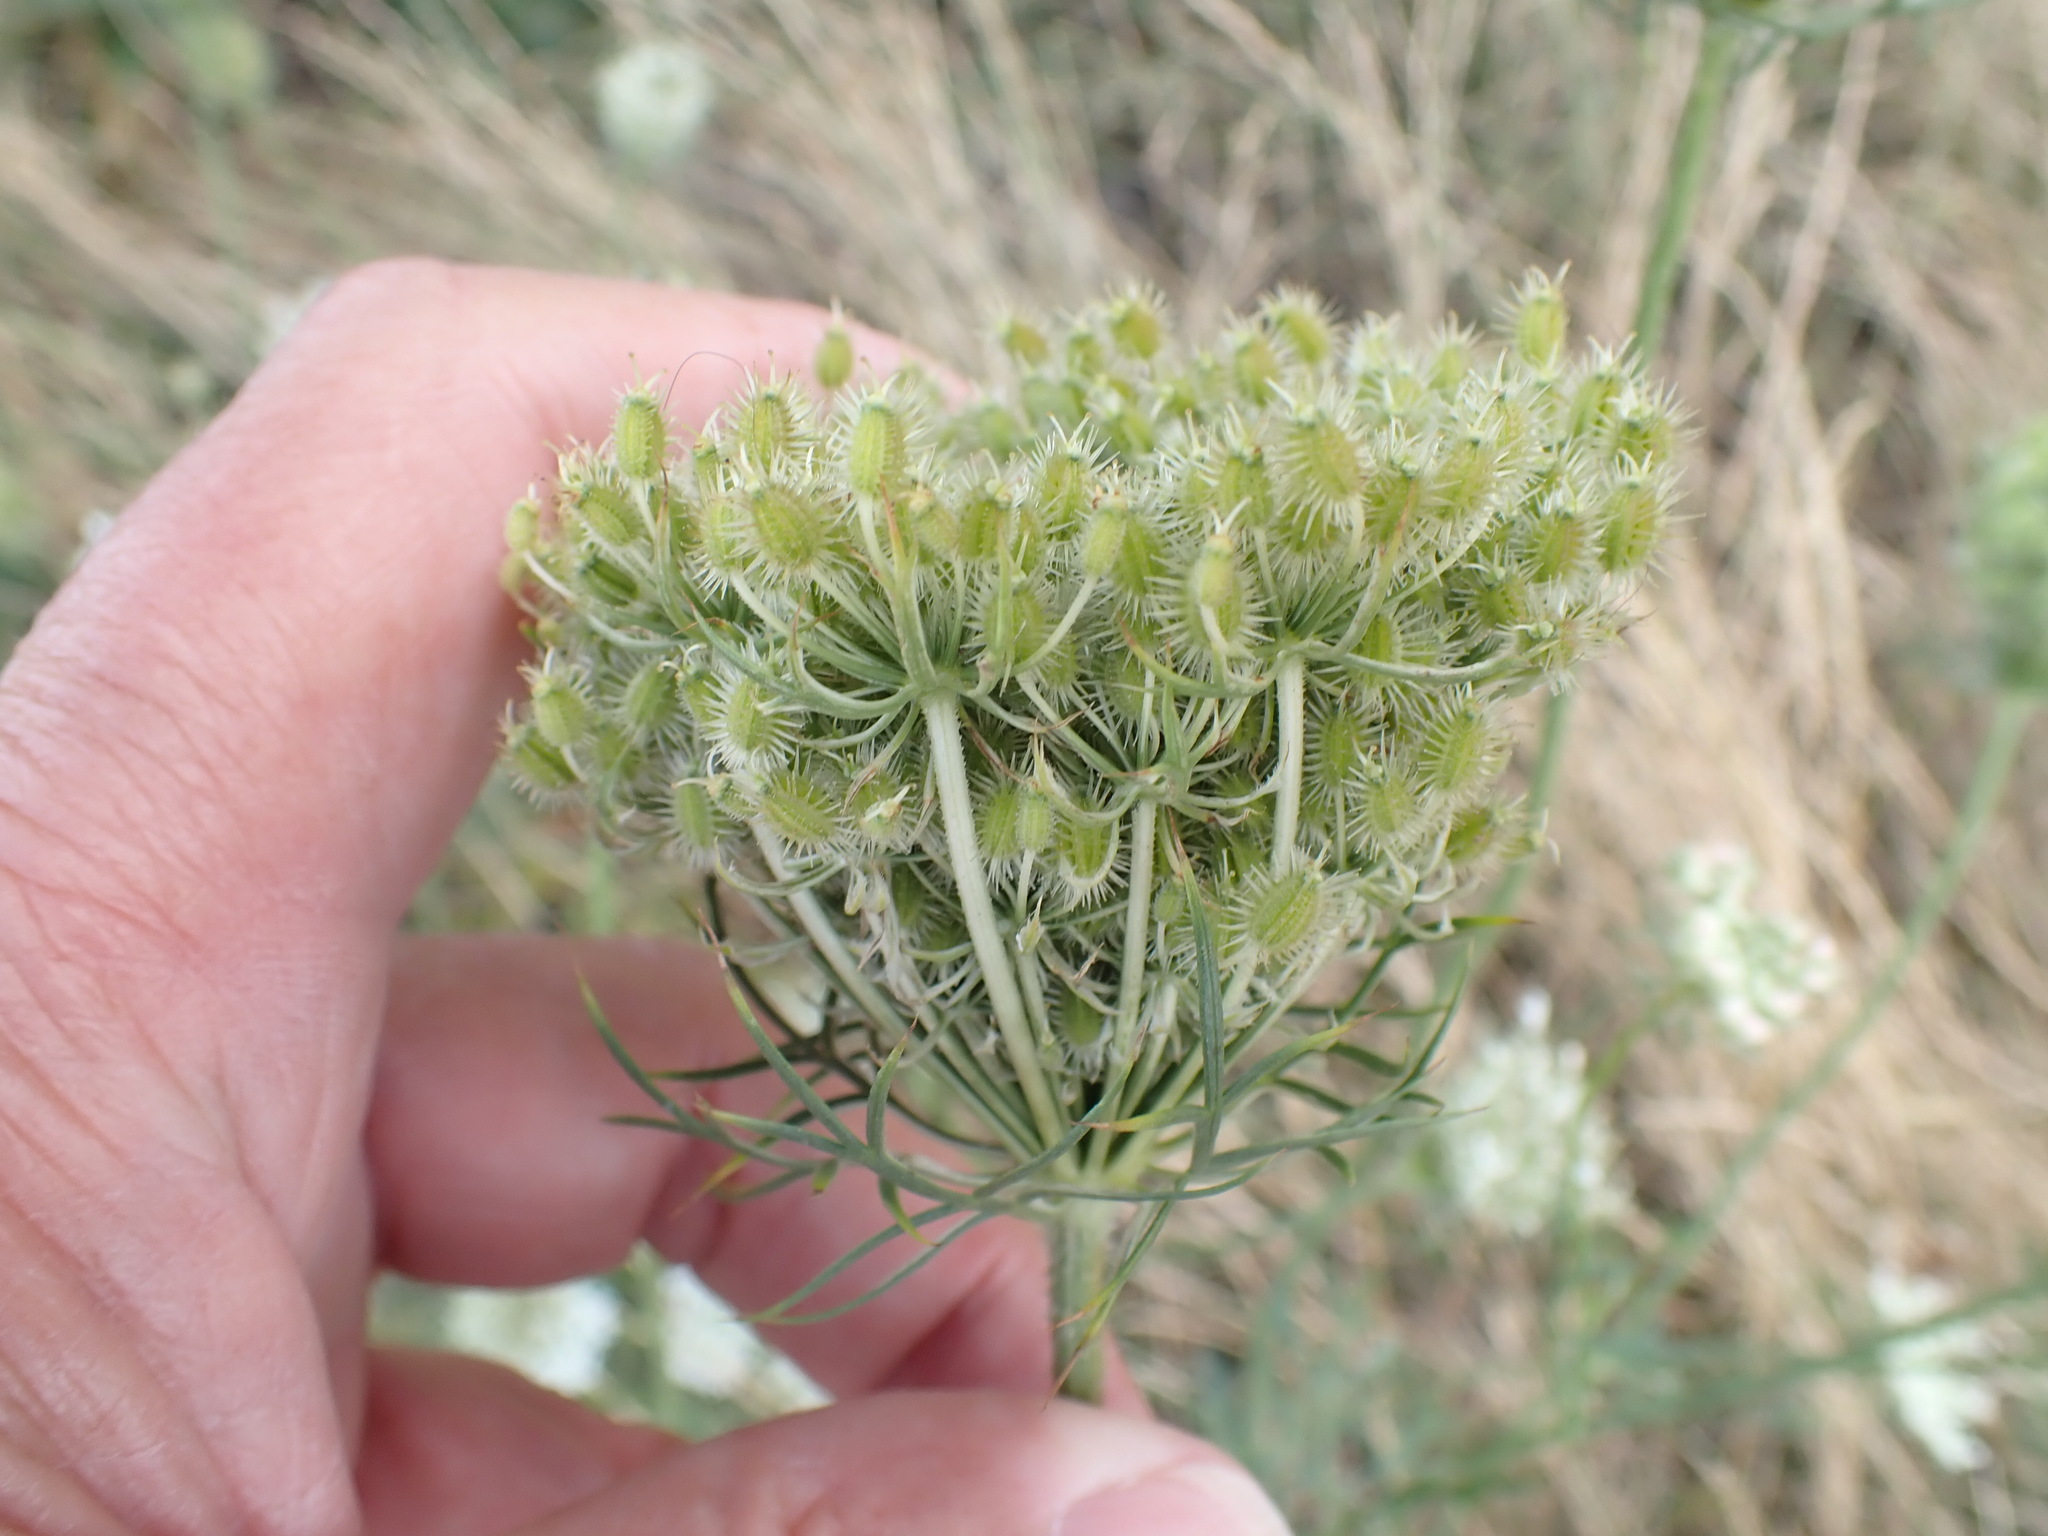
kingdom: Plantae
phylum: Tracheophyta
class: Magnoliopsida
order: Apiales
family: Apiaceae
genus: Daucus
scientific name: Daucus carota
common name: Wild carrot
